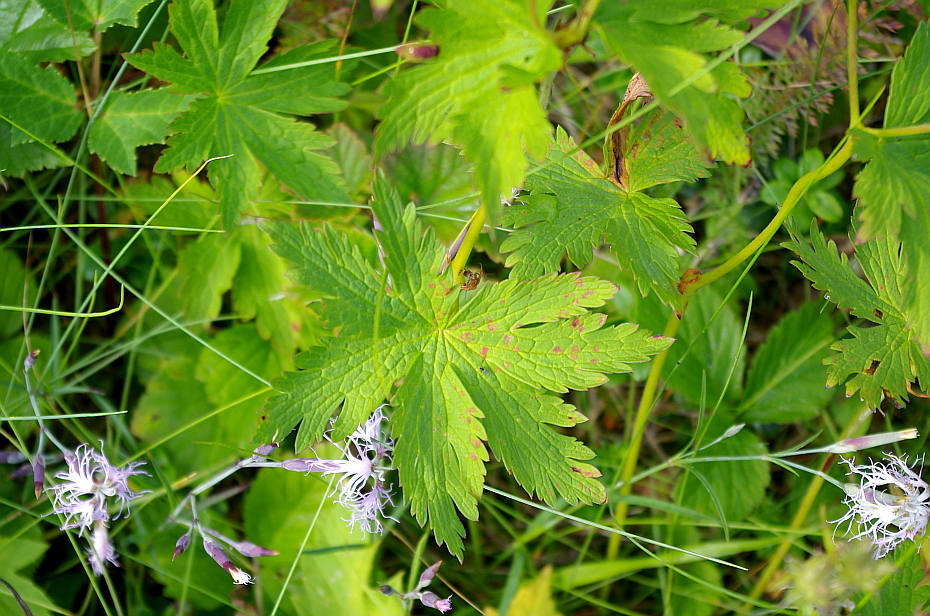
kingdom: Plantae
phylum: Tracheophyta
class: Magnoliopsida
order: Geraniales
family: Geraniaceae
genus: Geranium
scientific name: Geranium sylvaticum
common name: Wood crane's-bill
